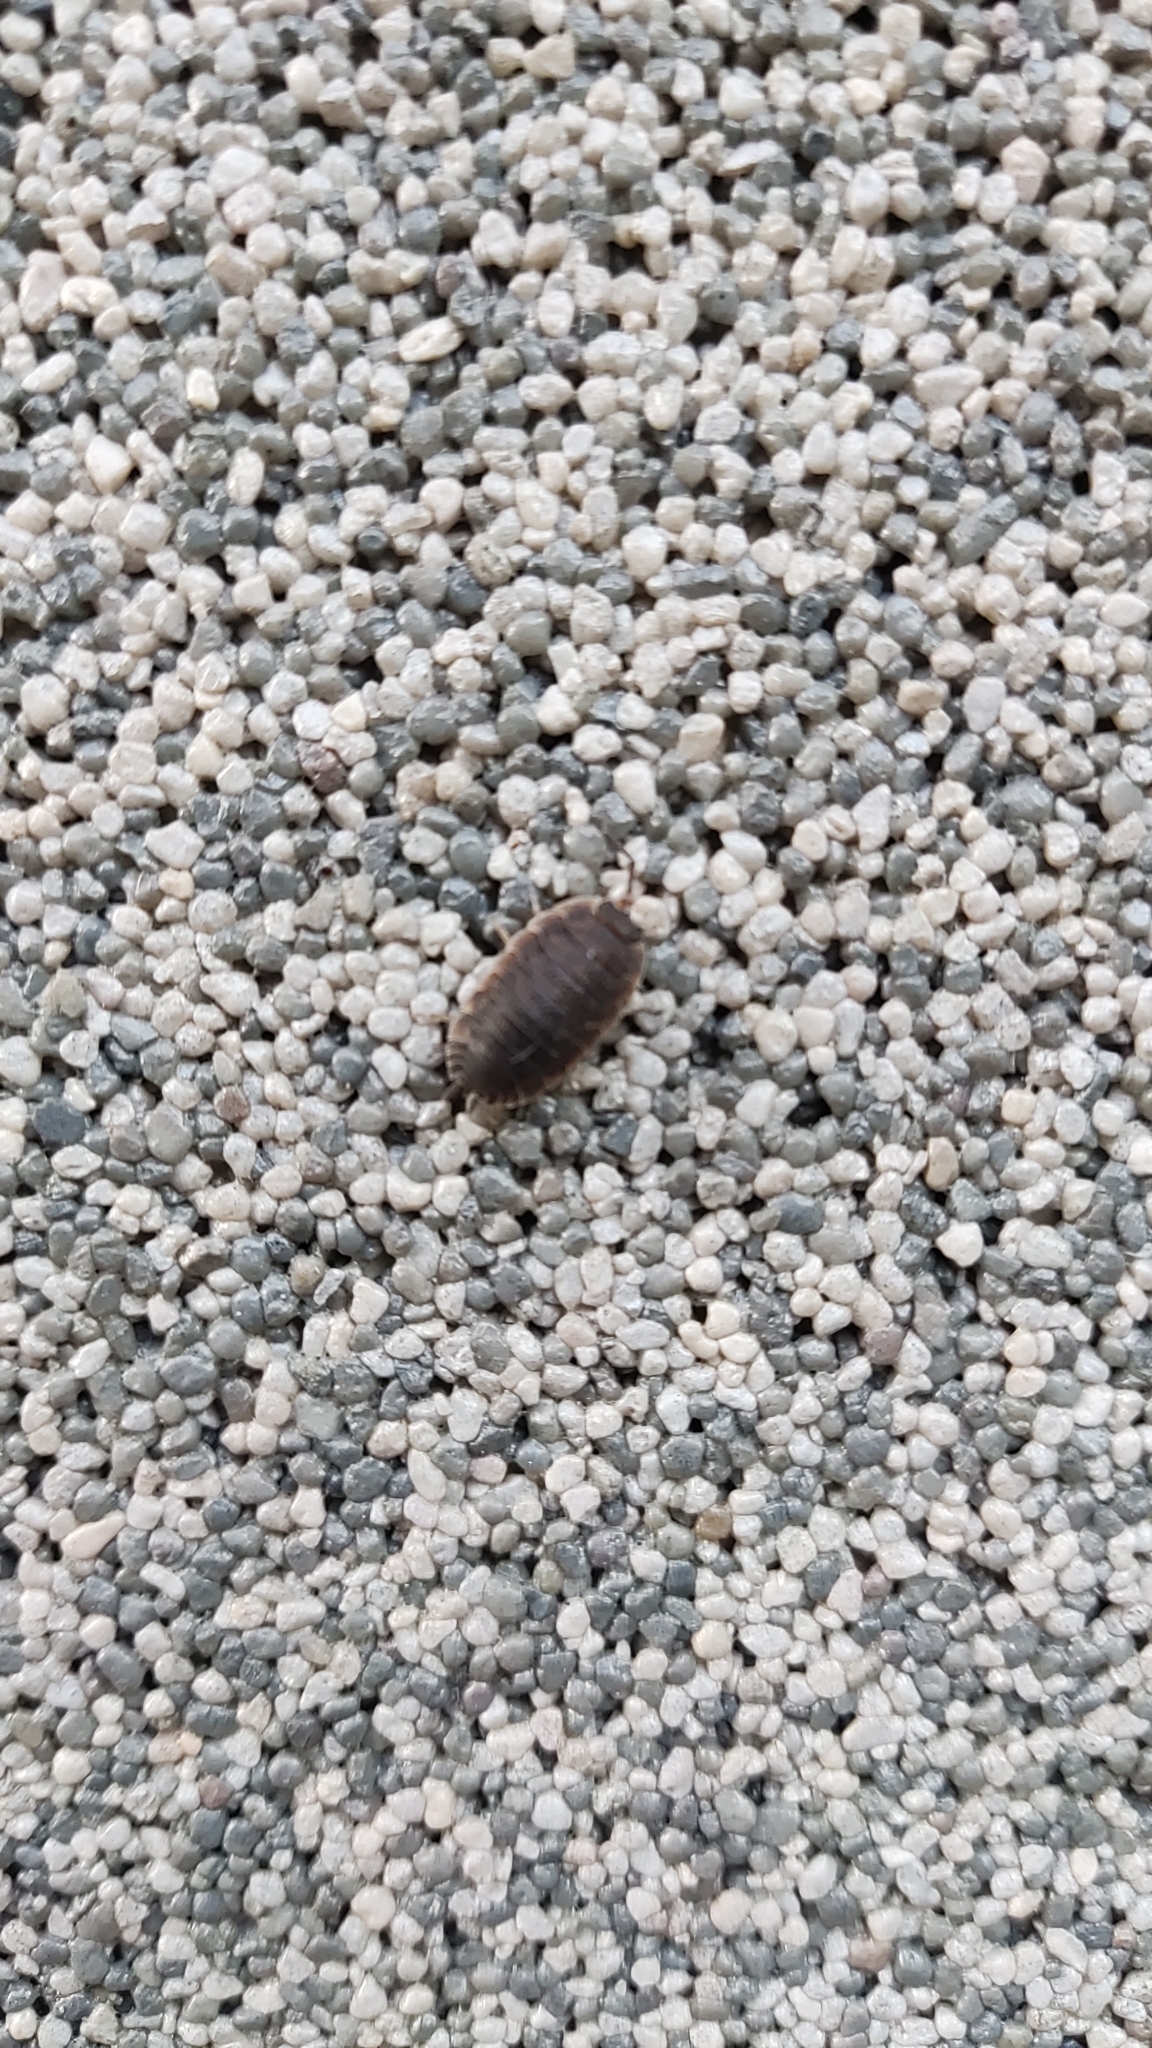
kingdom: Animalia
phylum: Arthropoda
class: Malacostraca
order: Isopoda
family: Porcellionidae
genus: Porcellio
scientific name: Porcellio scaber
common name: Common rough woodlouse
